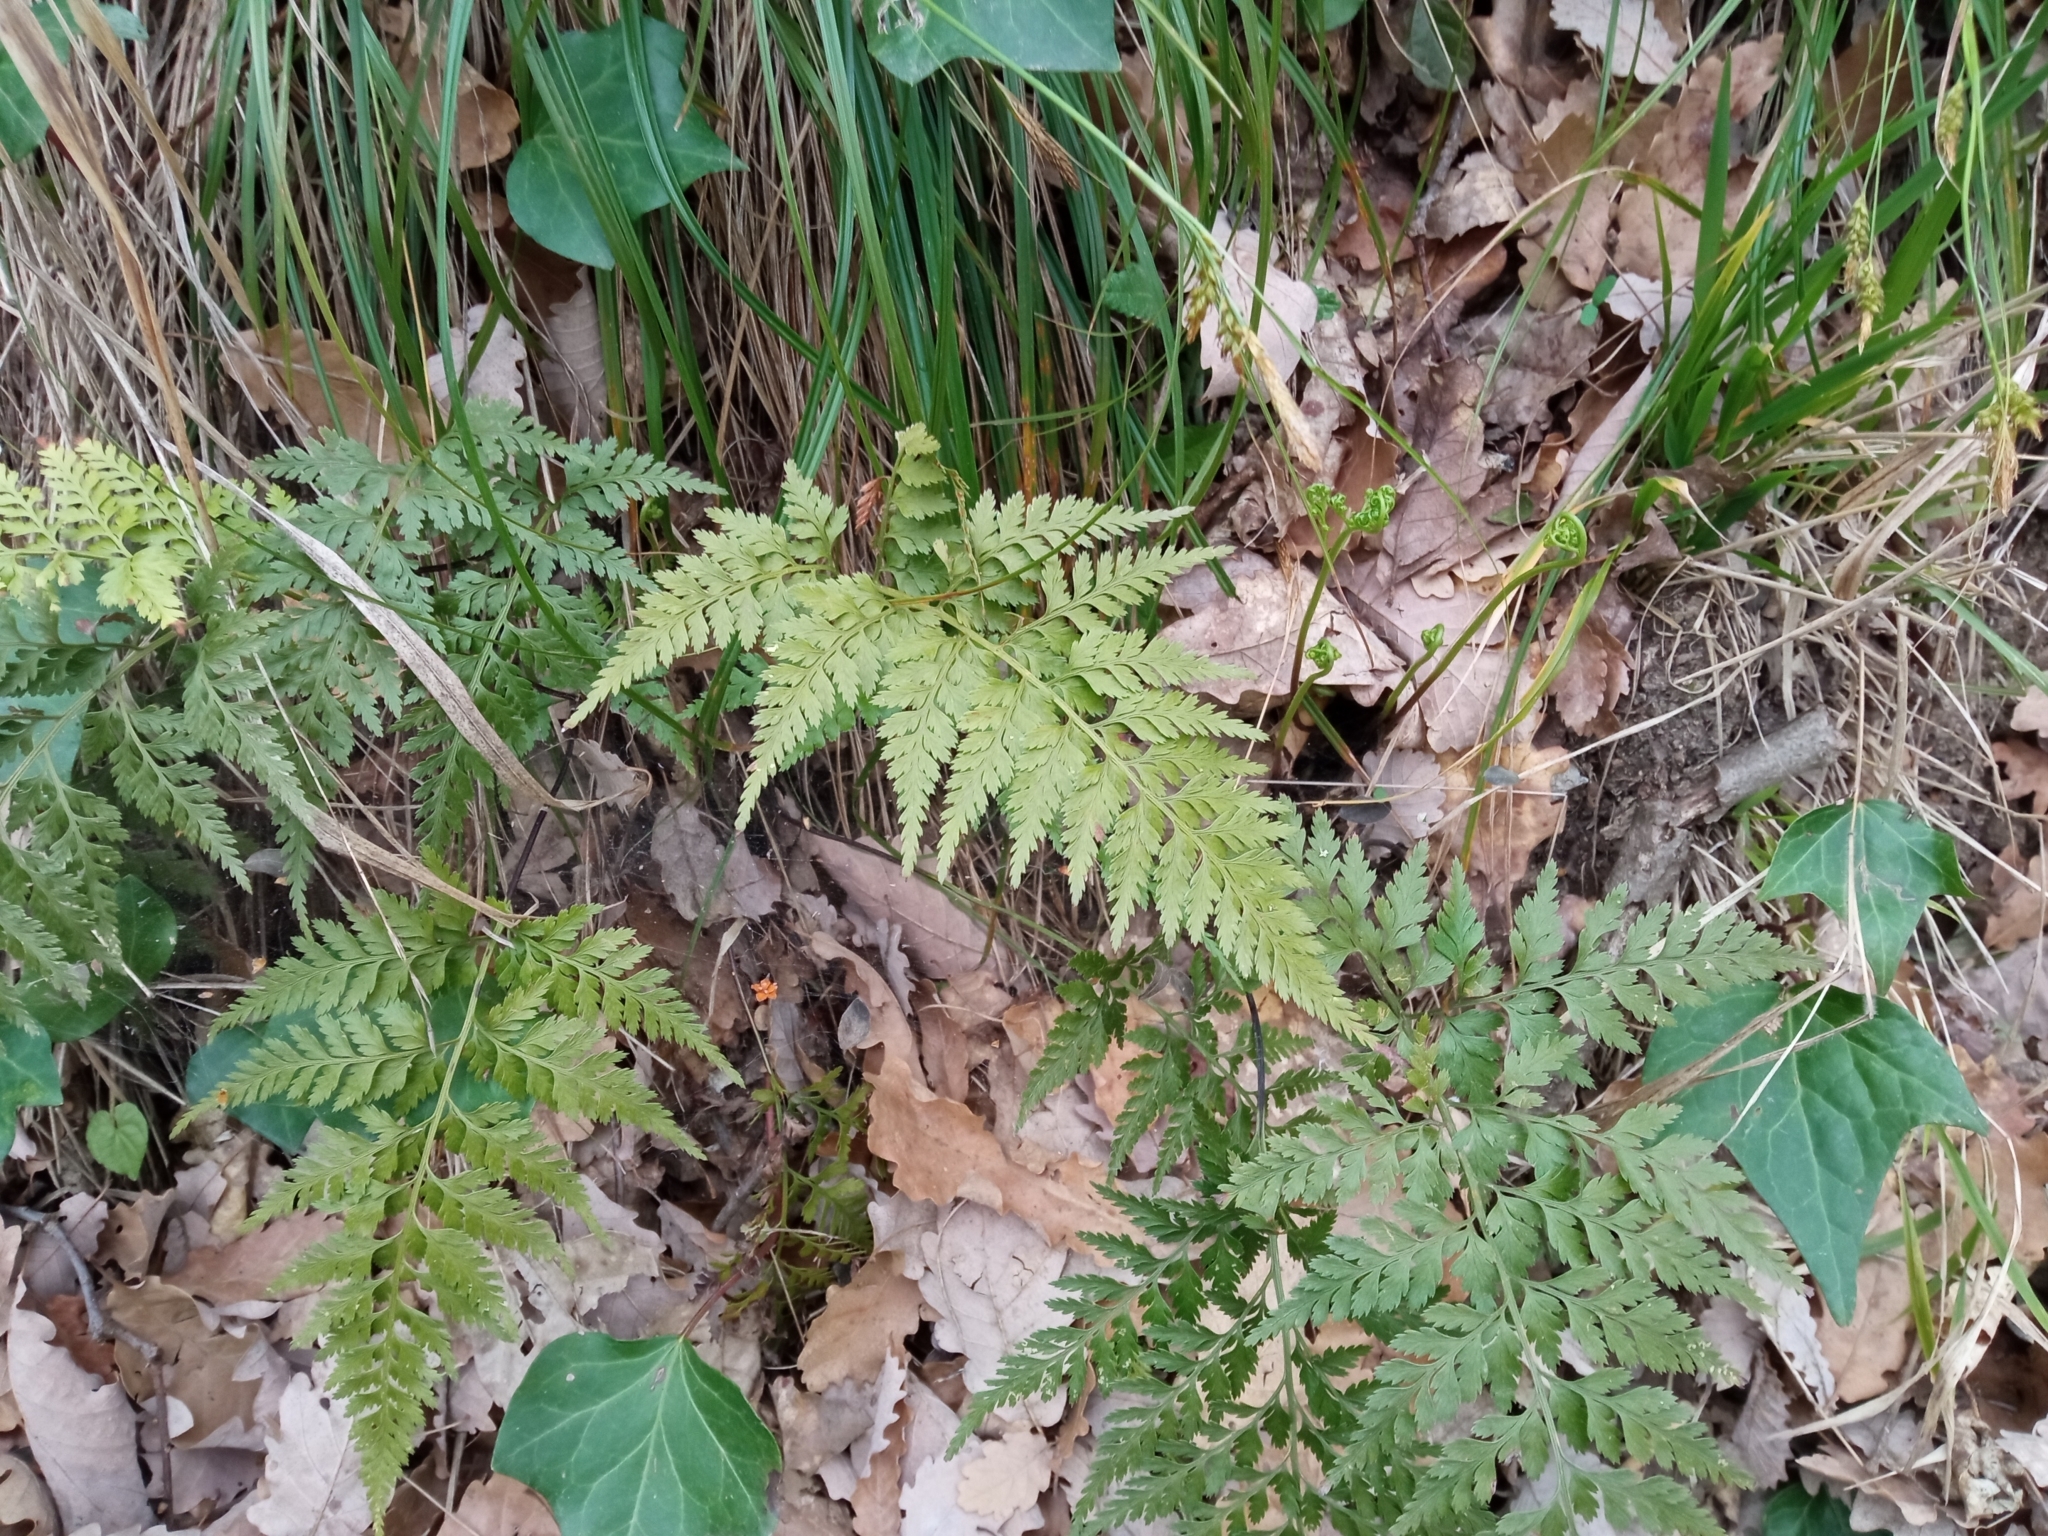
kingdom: Plantae
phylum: Tracheophyta
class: Polypodiopsida
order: Polypodiales
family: Aspleniaceae
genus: Asplenium
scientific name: Asplenium onopteris
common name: Irish spleenwort
